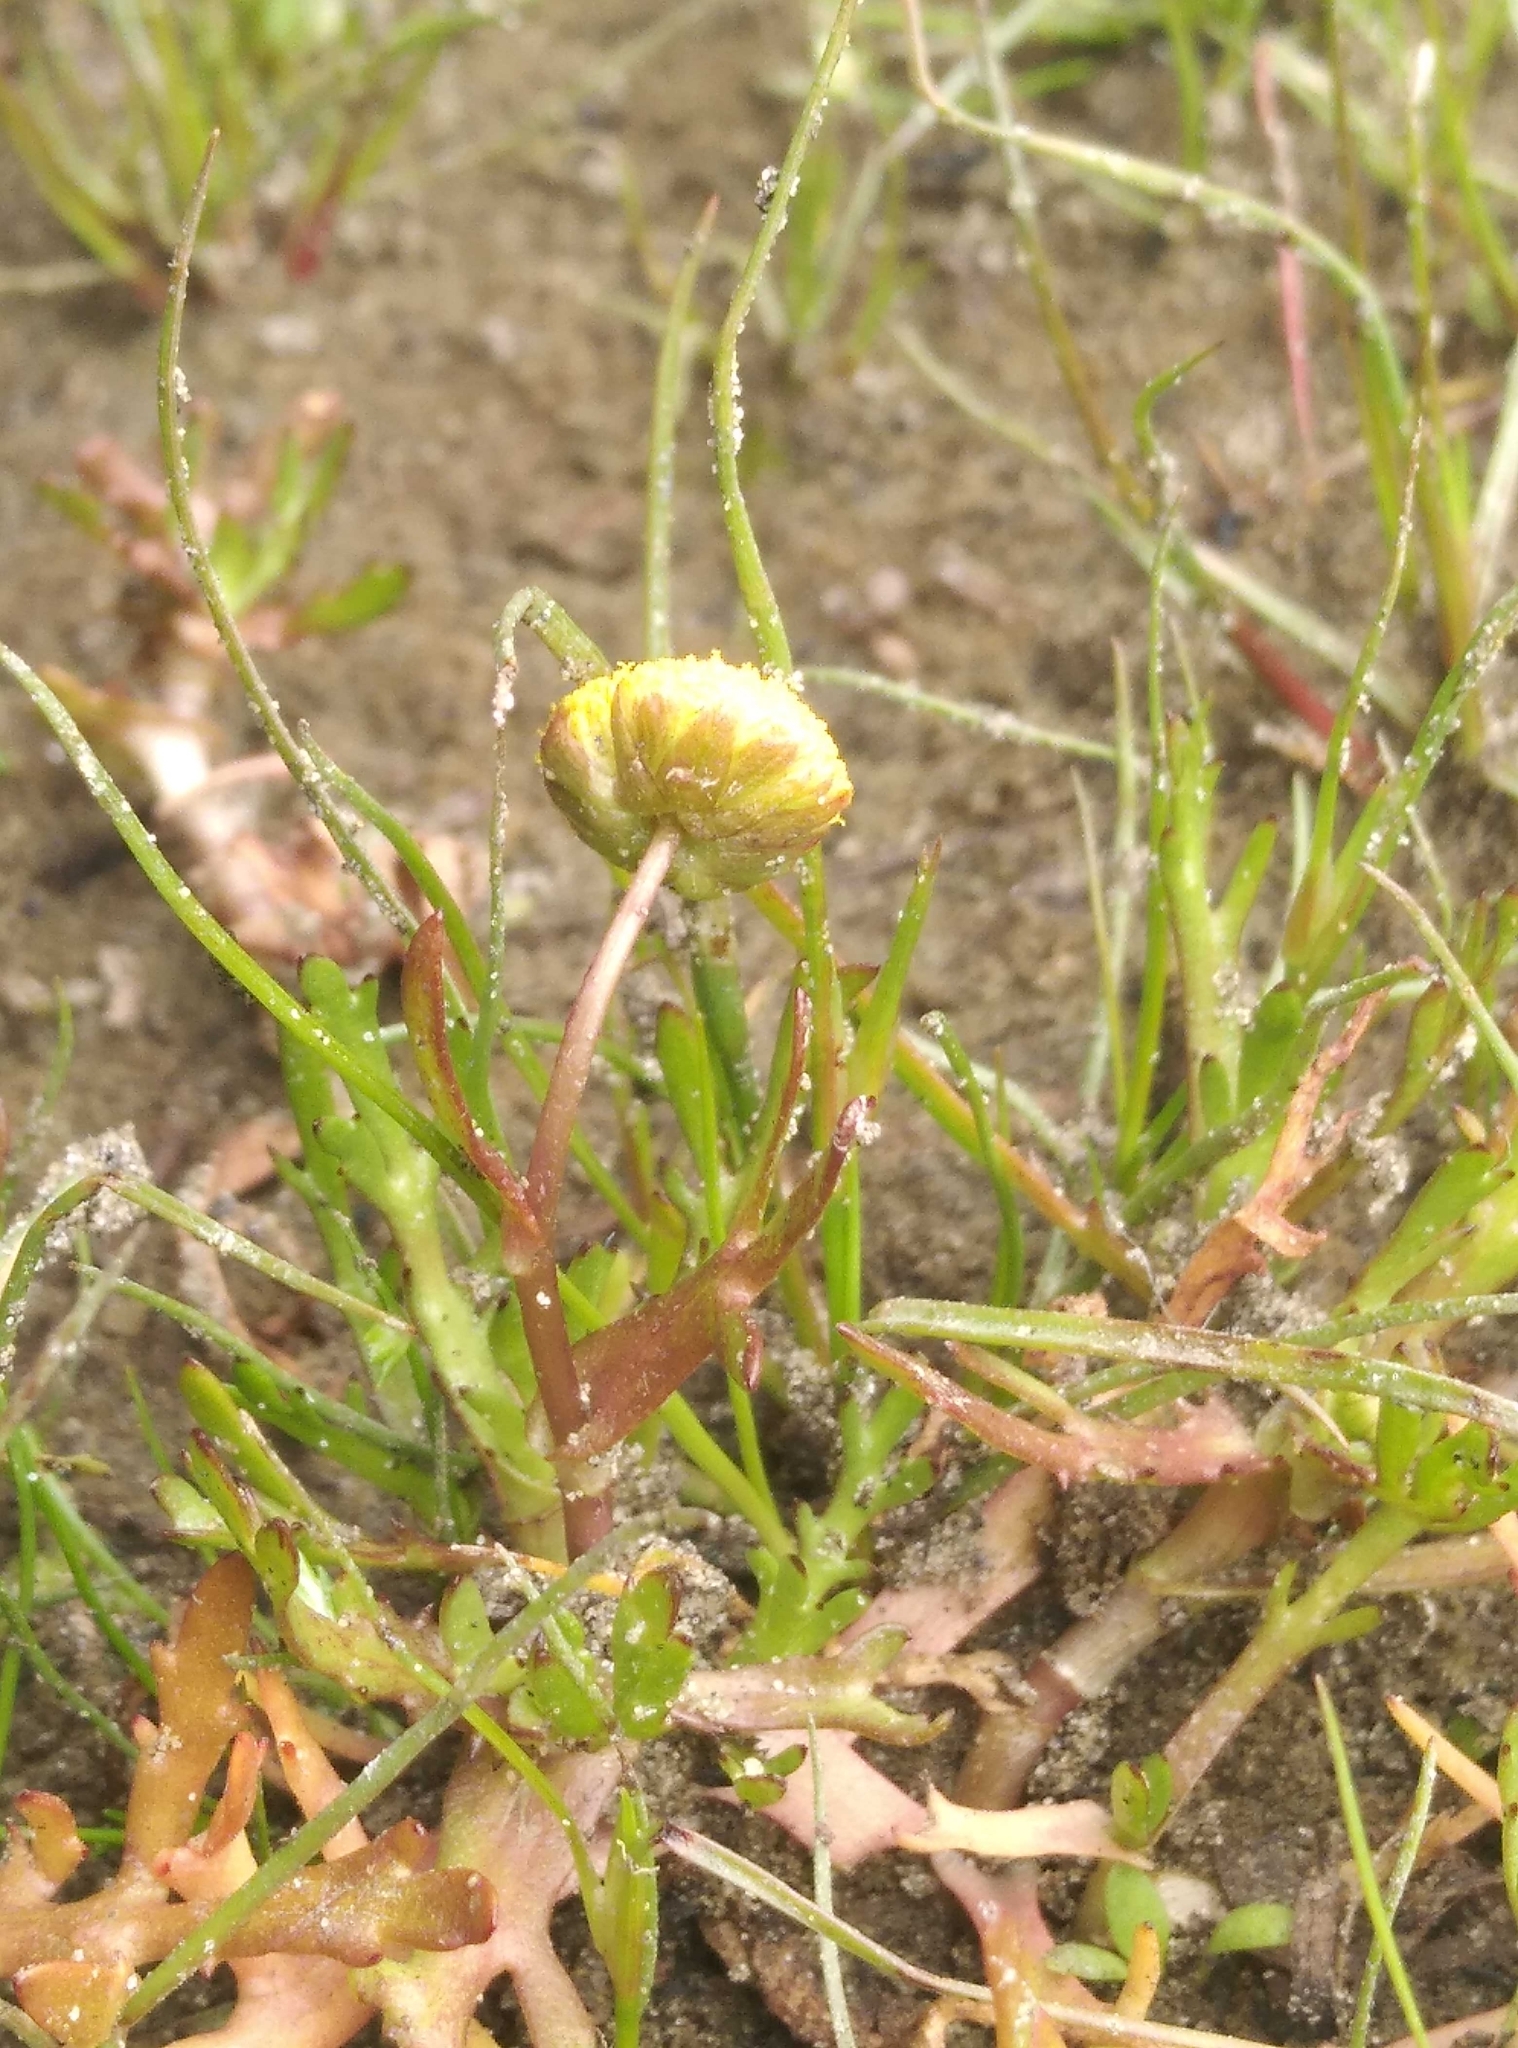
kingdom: Plantae
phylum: Tracheophyta
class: Magnoliopsida
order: Asterales
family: Asteraceae
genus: Cotula
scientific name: Cotula coronopifolia
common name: Buttonweed
